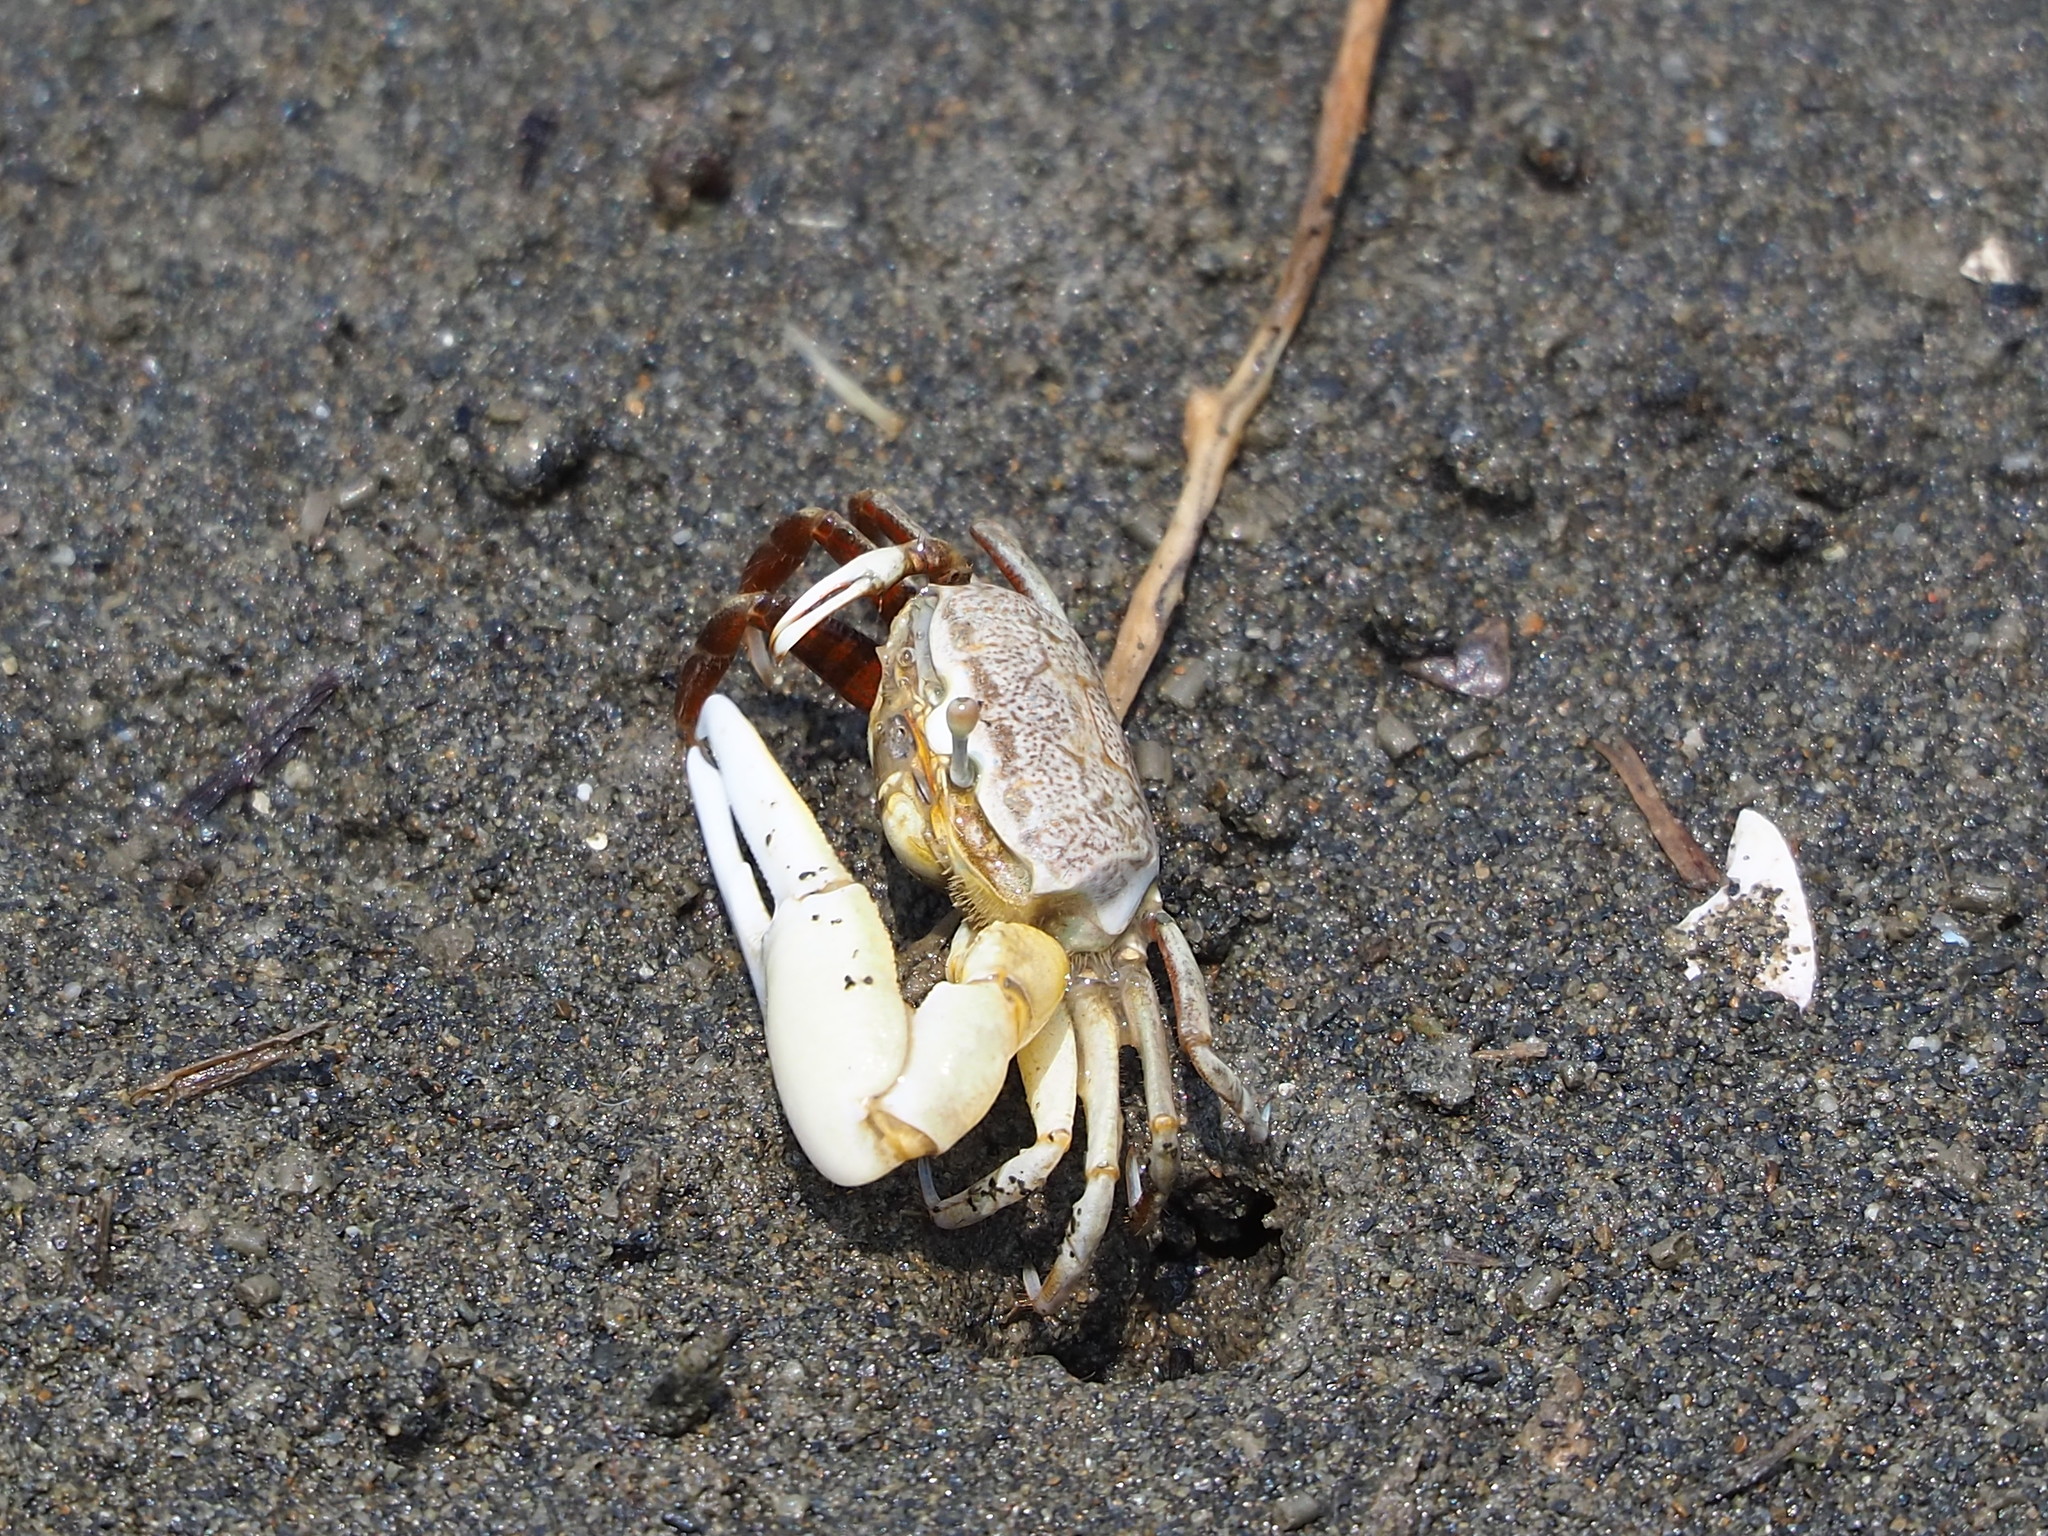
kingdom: Animalia
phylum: Arthropoda
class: Malacostraca
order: Decapoda
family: Ocypodidae
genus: Austruca
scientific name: Austruca lactea
